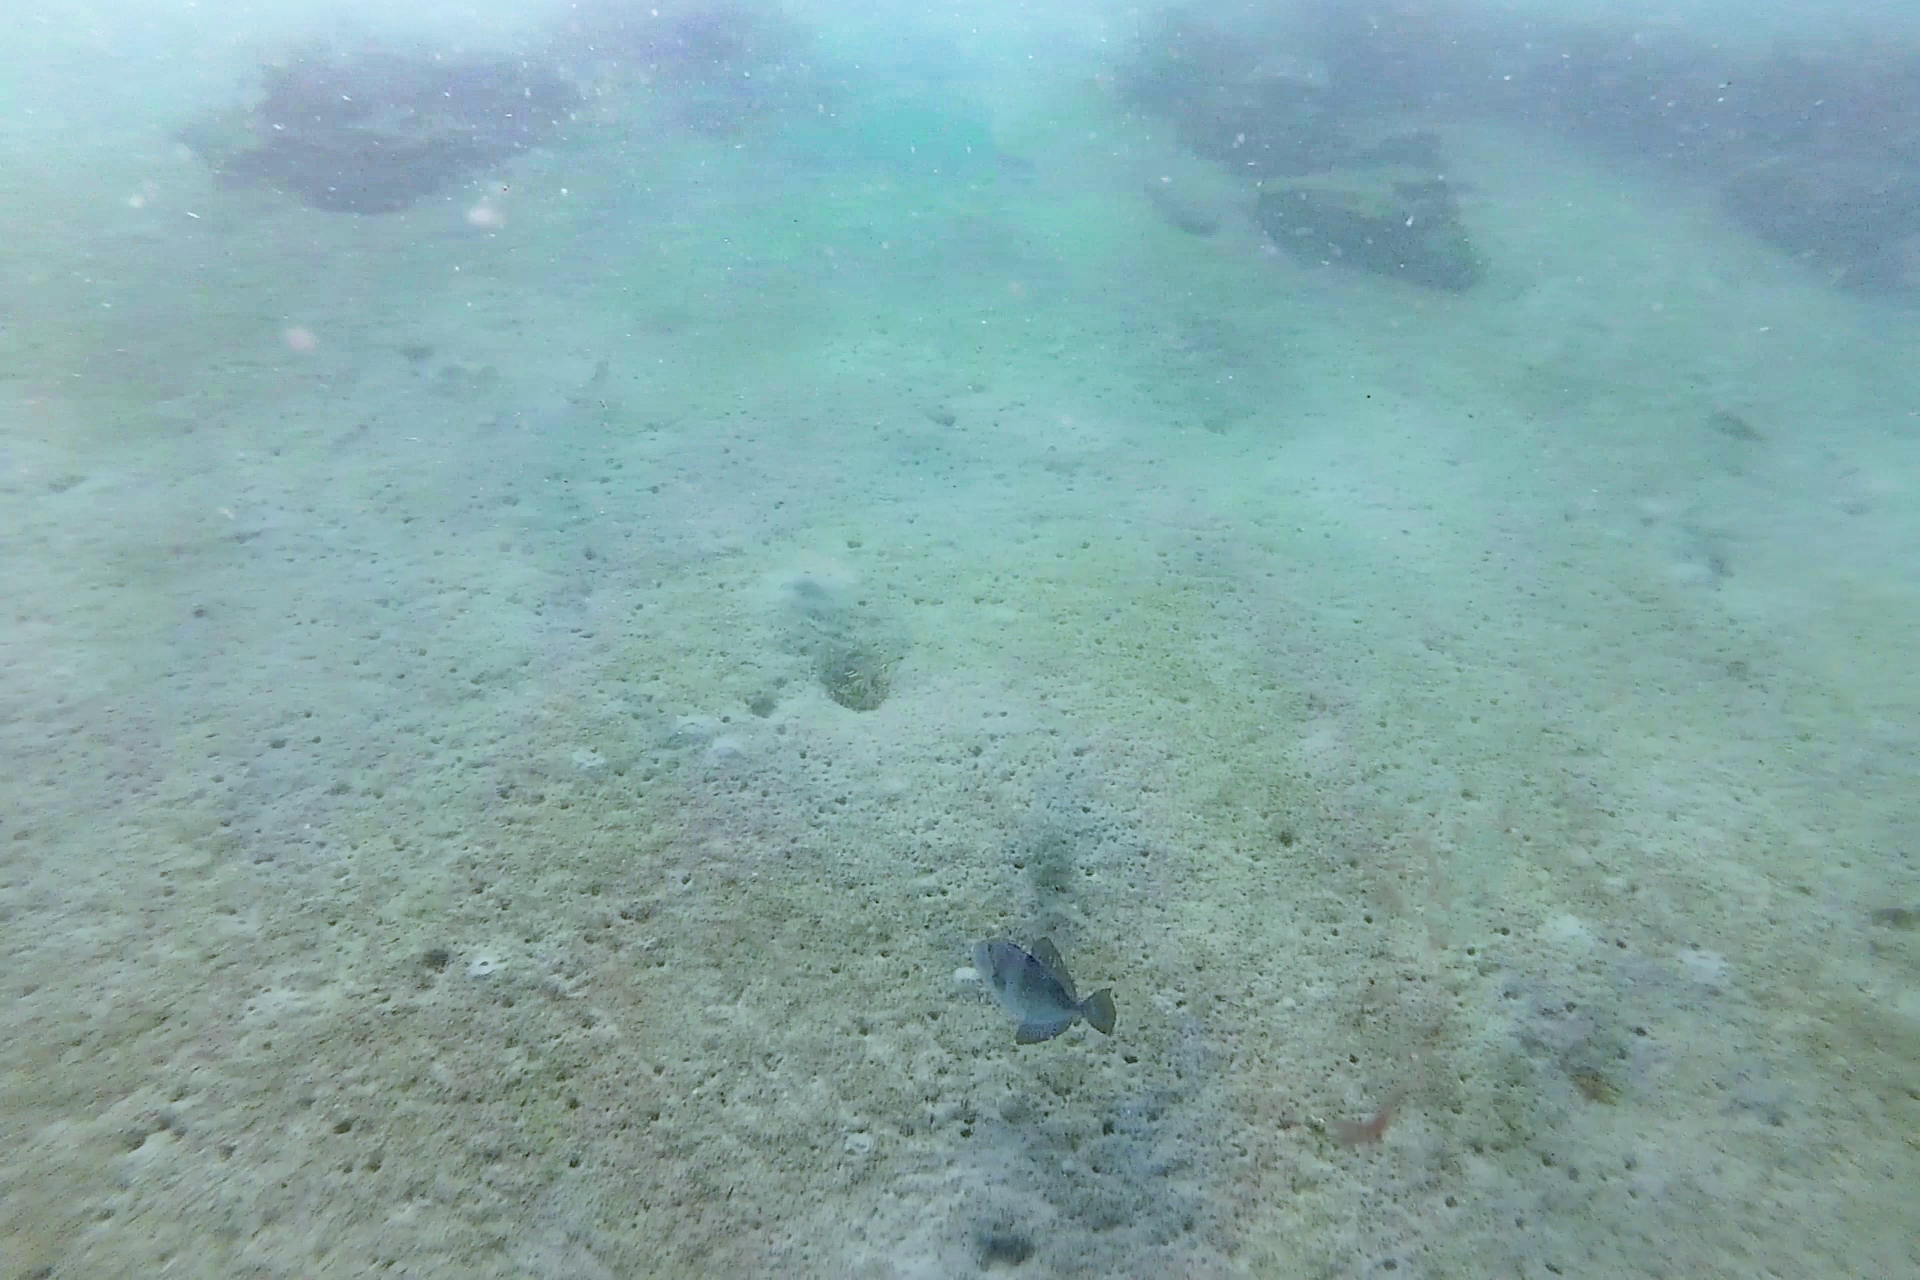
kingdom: Animalia
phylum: Chordata
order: Tetraodontiformes
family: Balistidae
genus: Balistes
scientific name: Balistes capriscus
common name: Grey triggerfish
